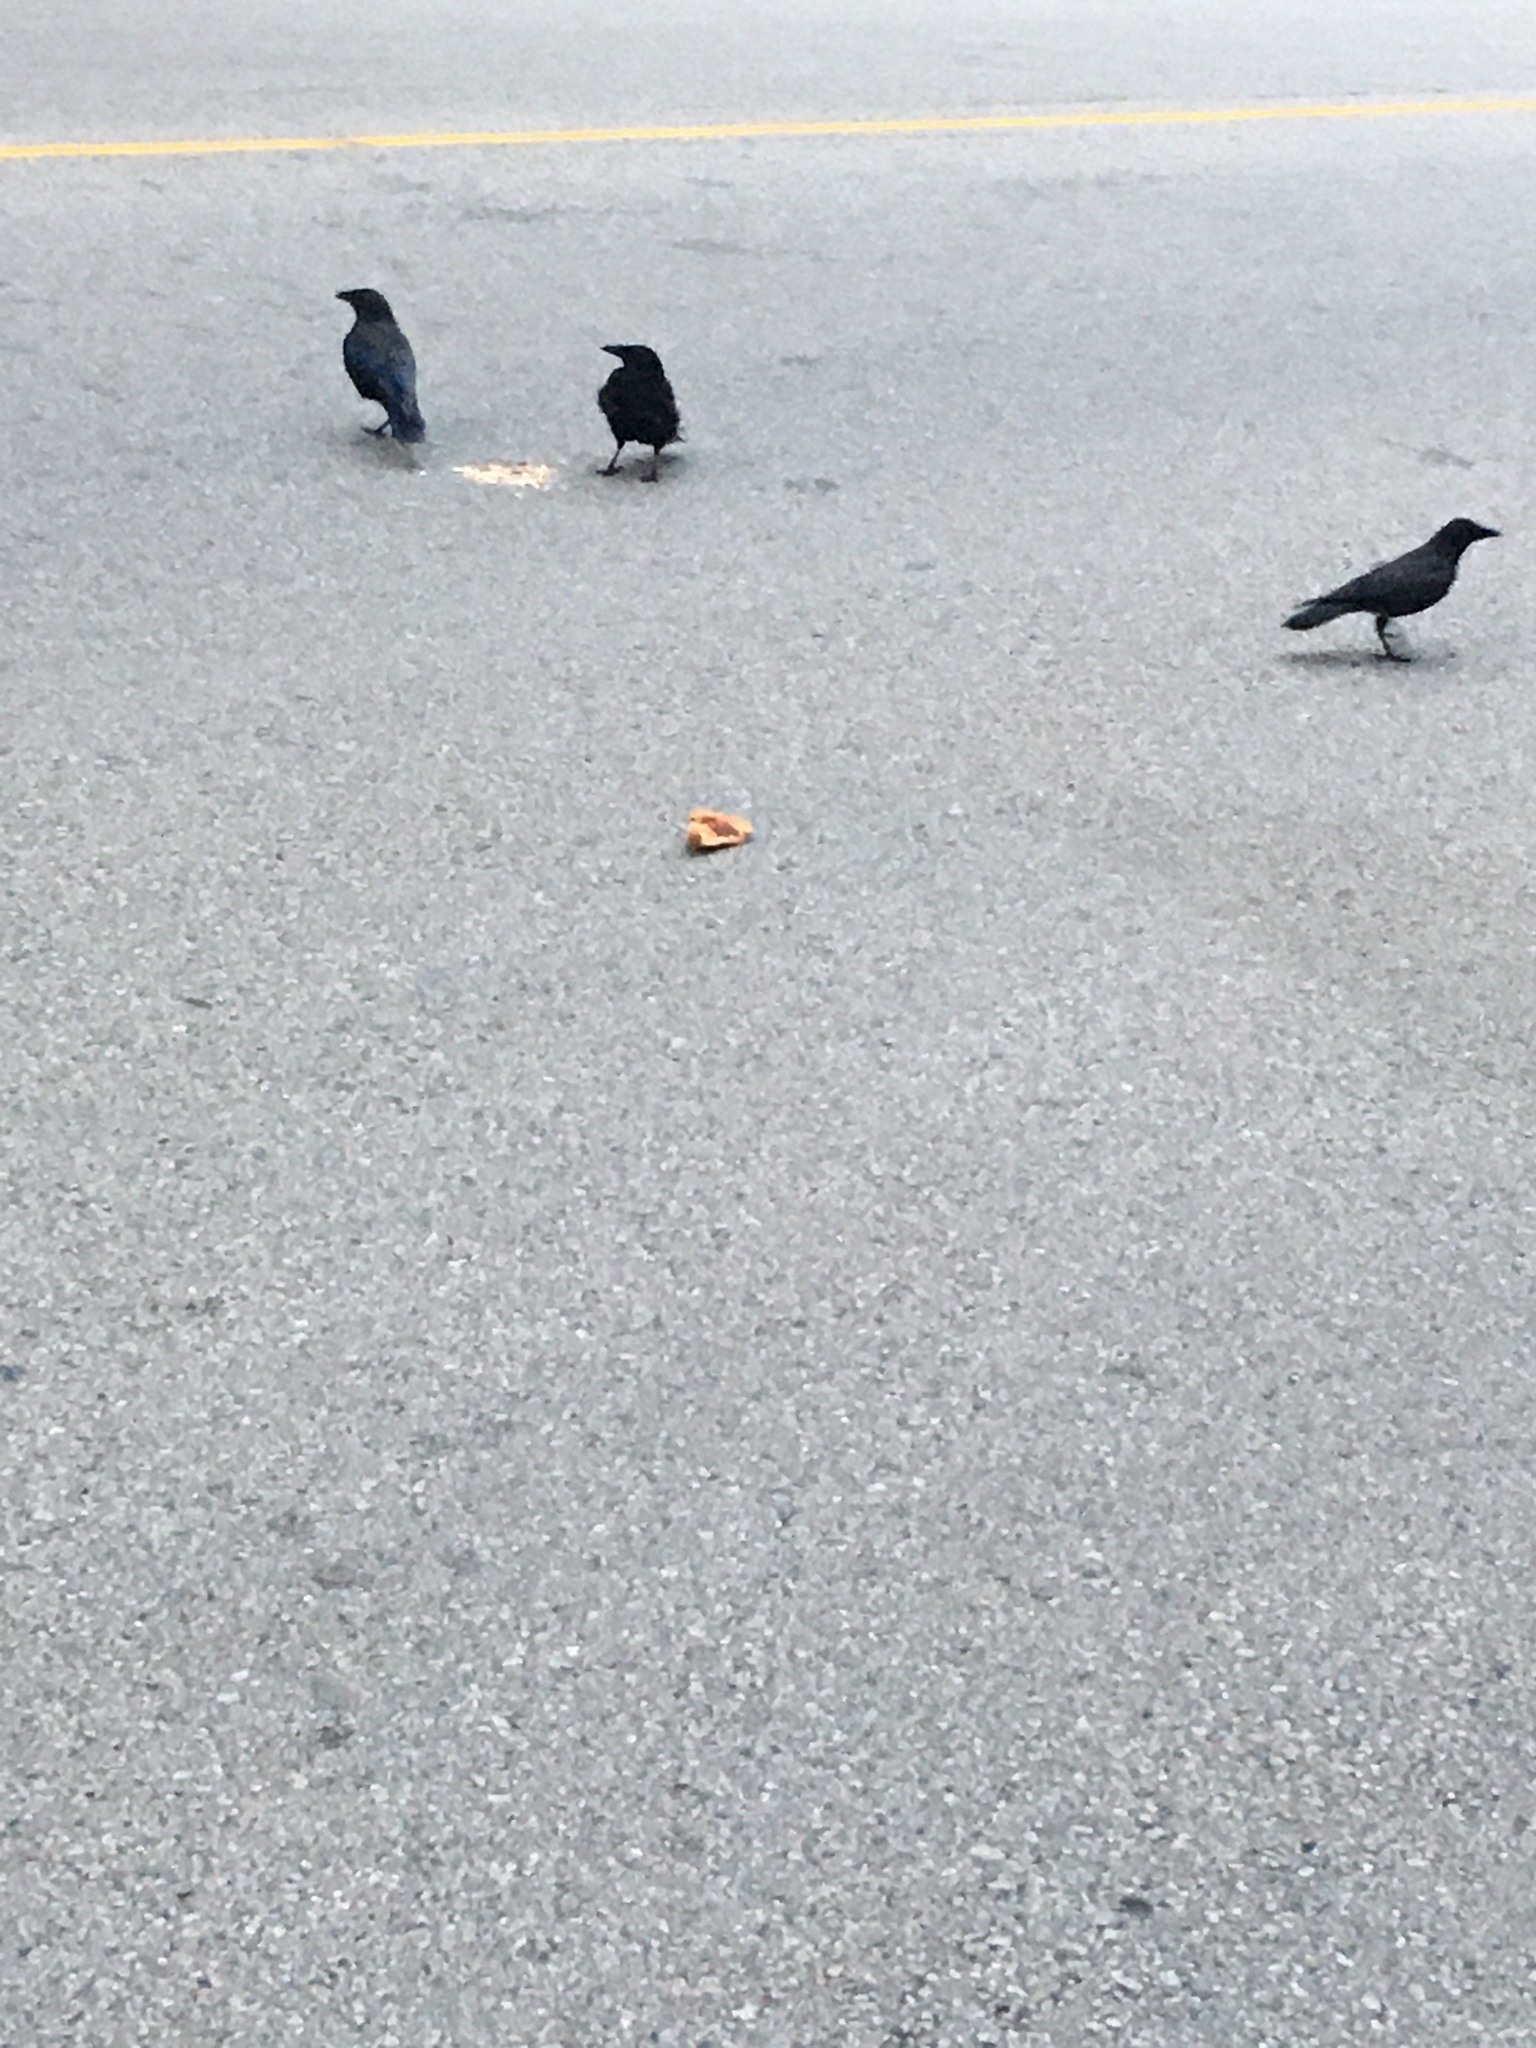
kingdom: Animalia
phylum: Chordata
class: Aves
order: Passeriformes
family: Corvidae
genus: Corvus
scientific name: Corvus brachyrhynchos
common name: American crow
